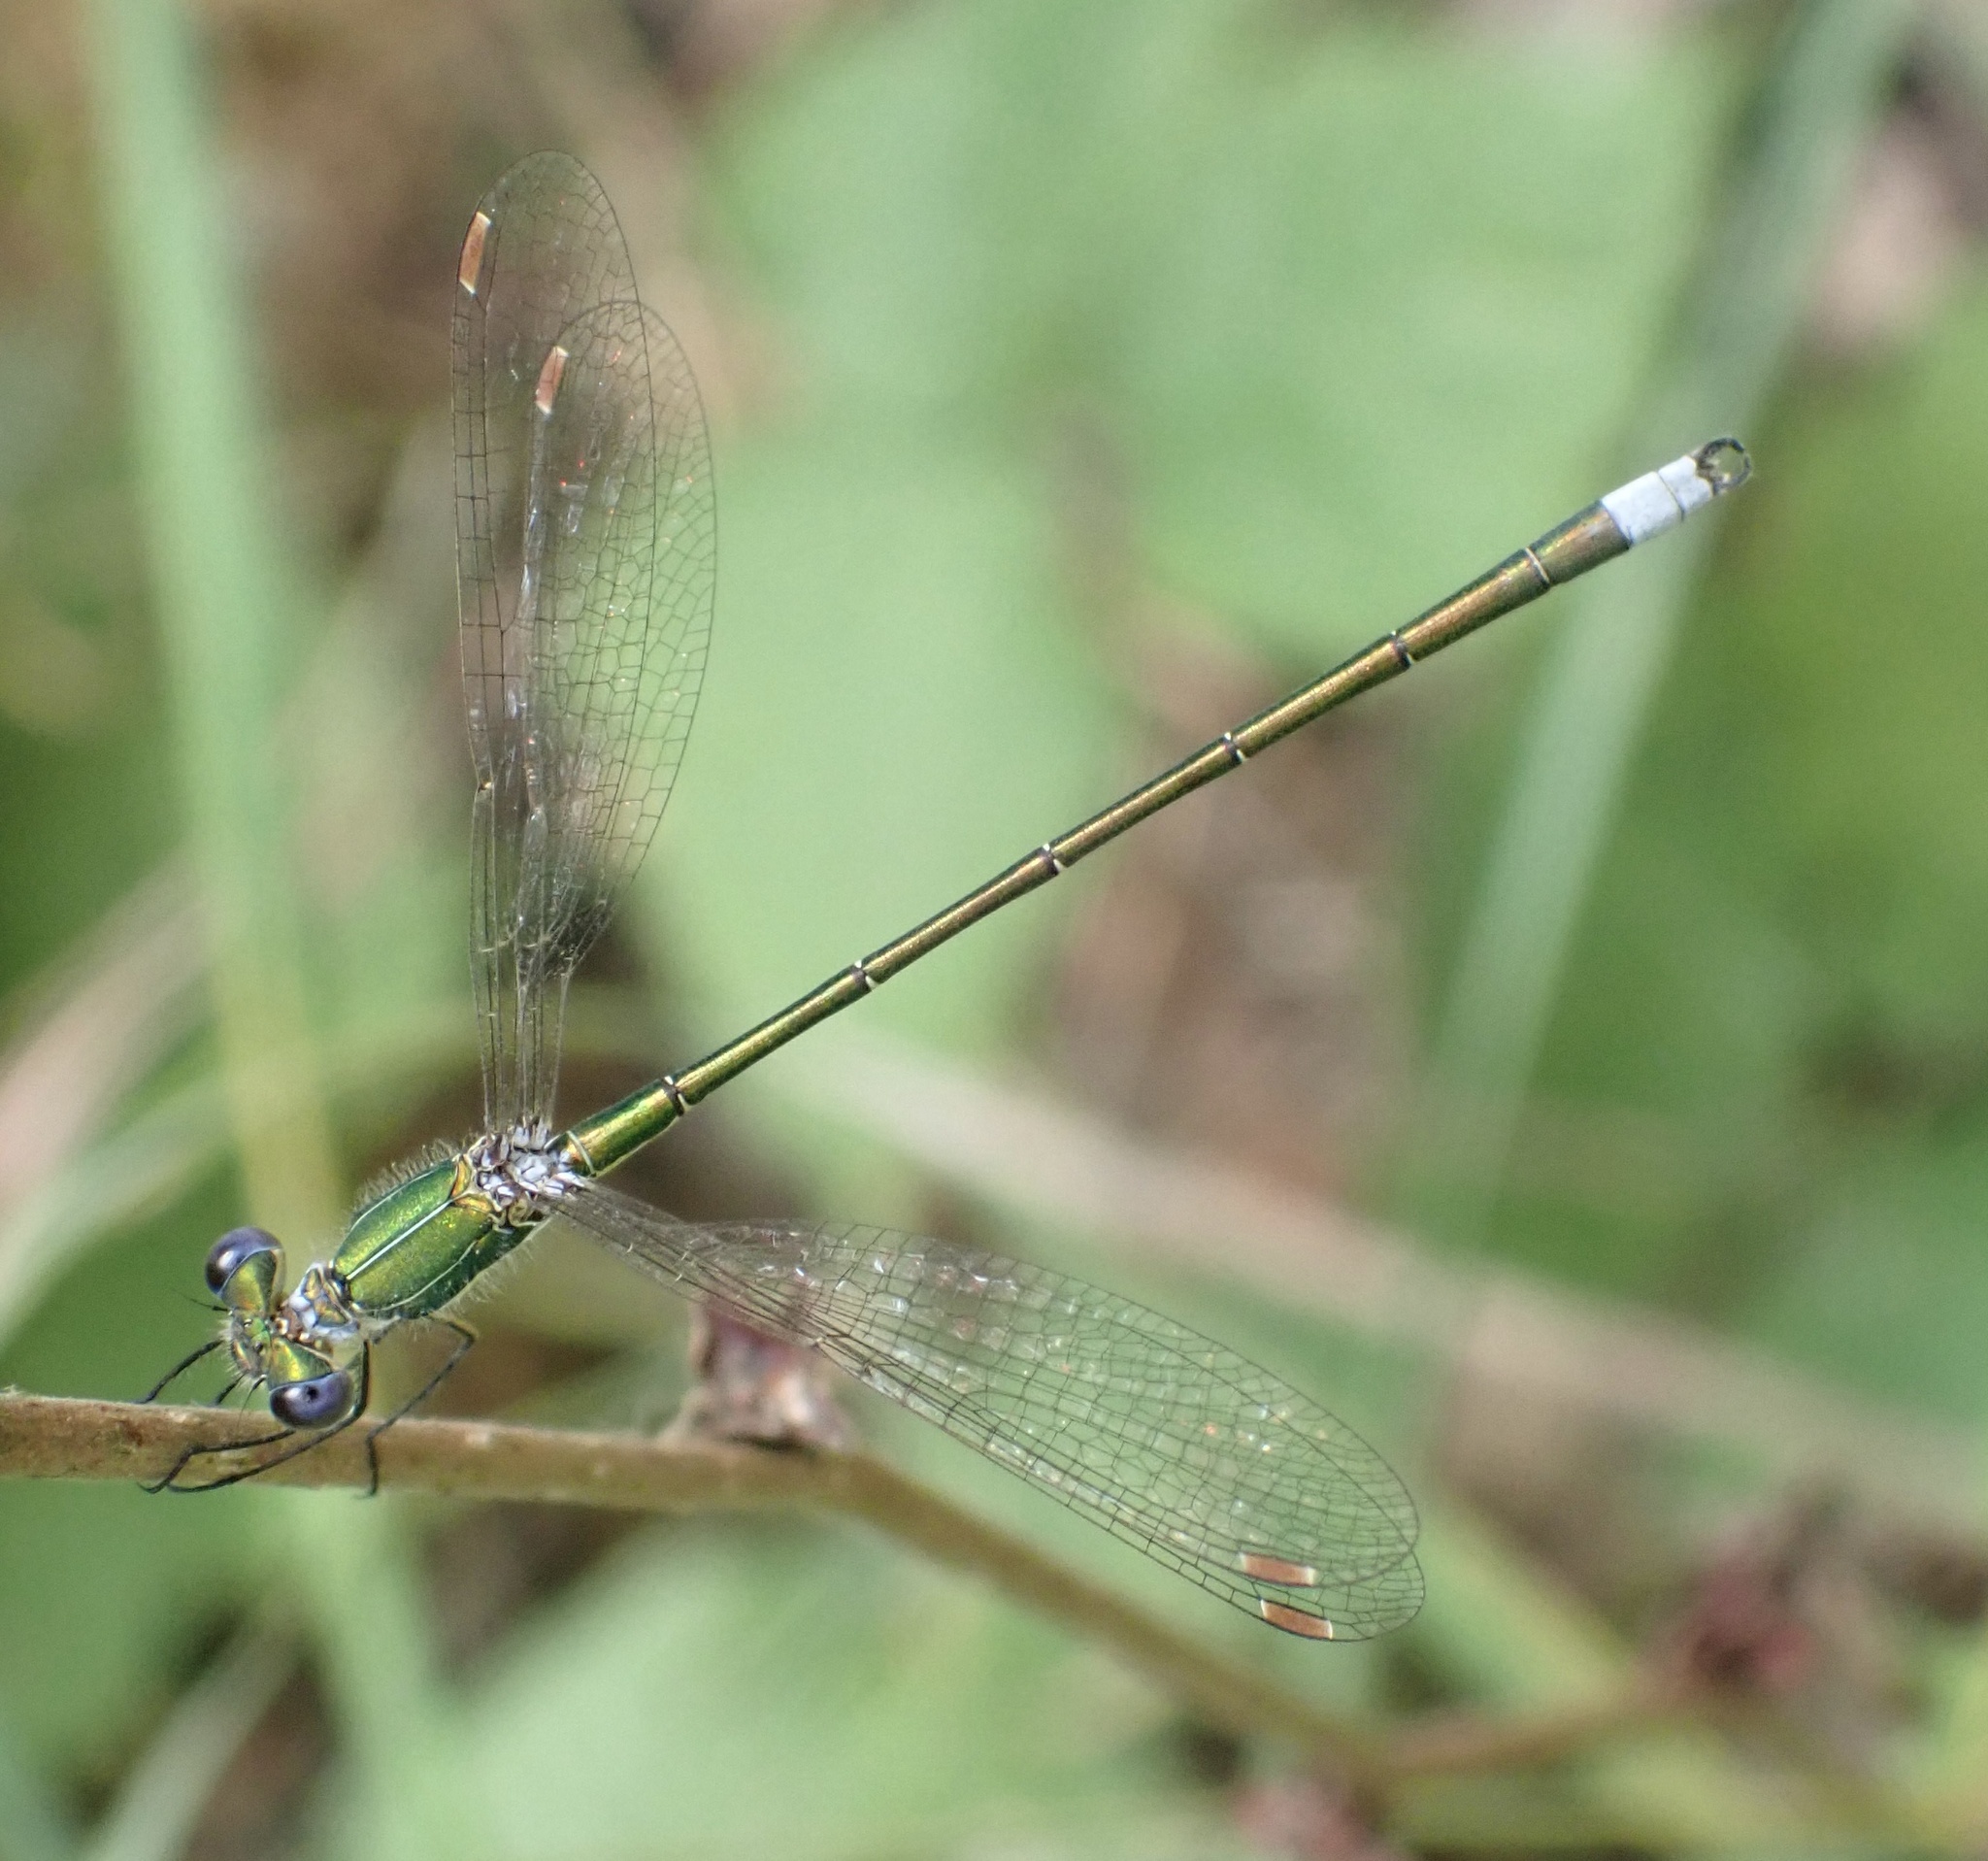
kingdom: Animalia
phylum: Arthropoda
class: Insecta
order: Odonata
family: Lestidae
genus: Lestes
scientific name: Lestes virens
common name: Small emerald spreadwing
